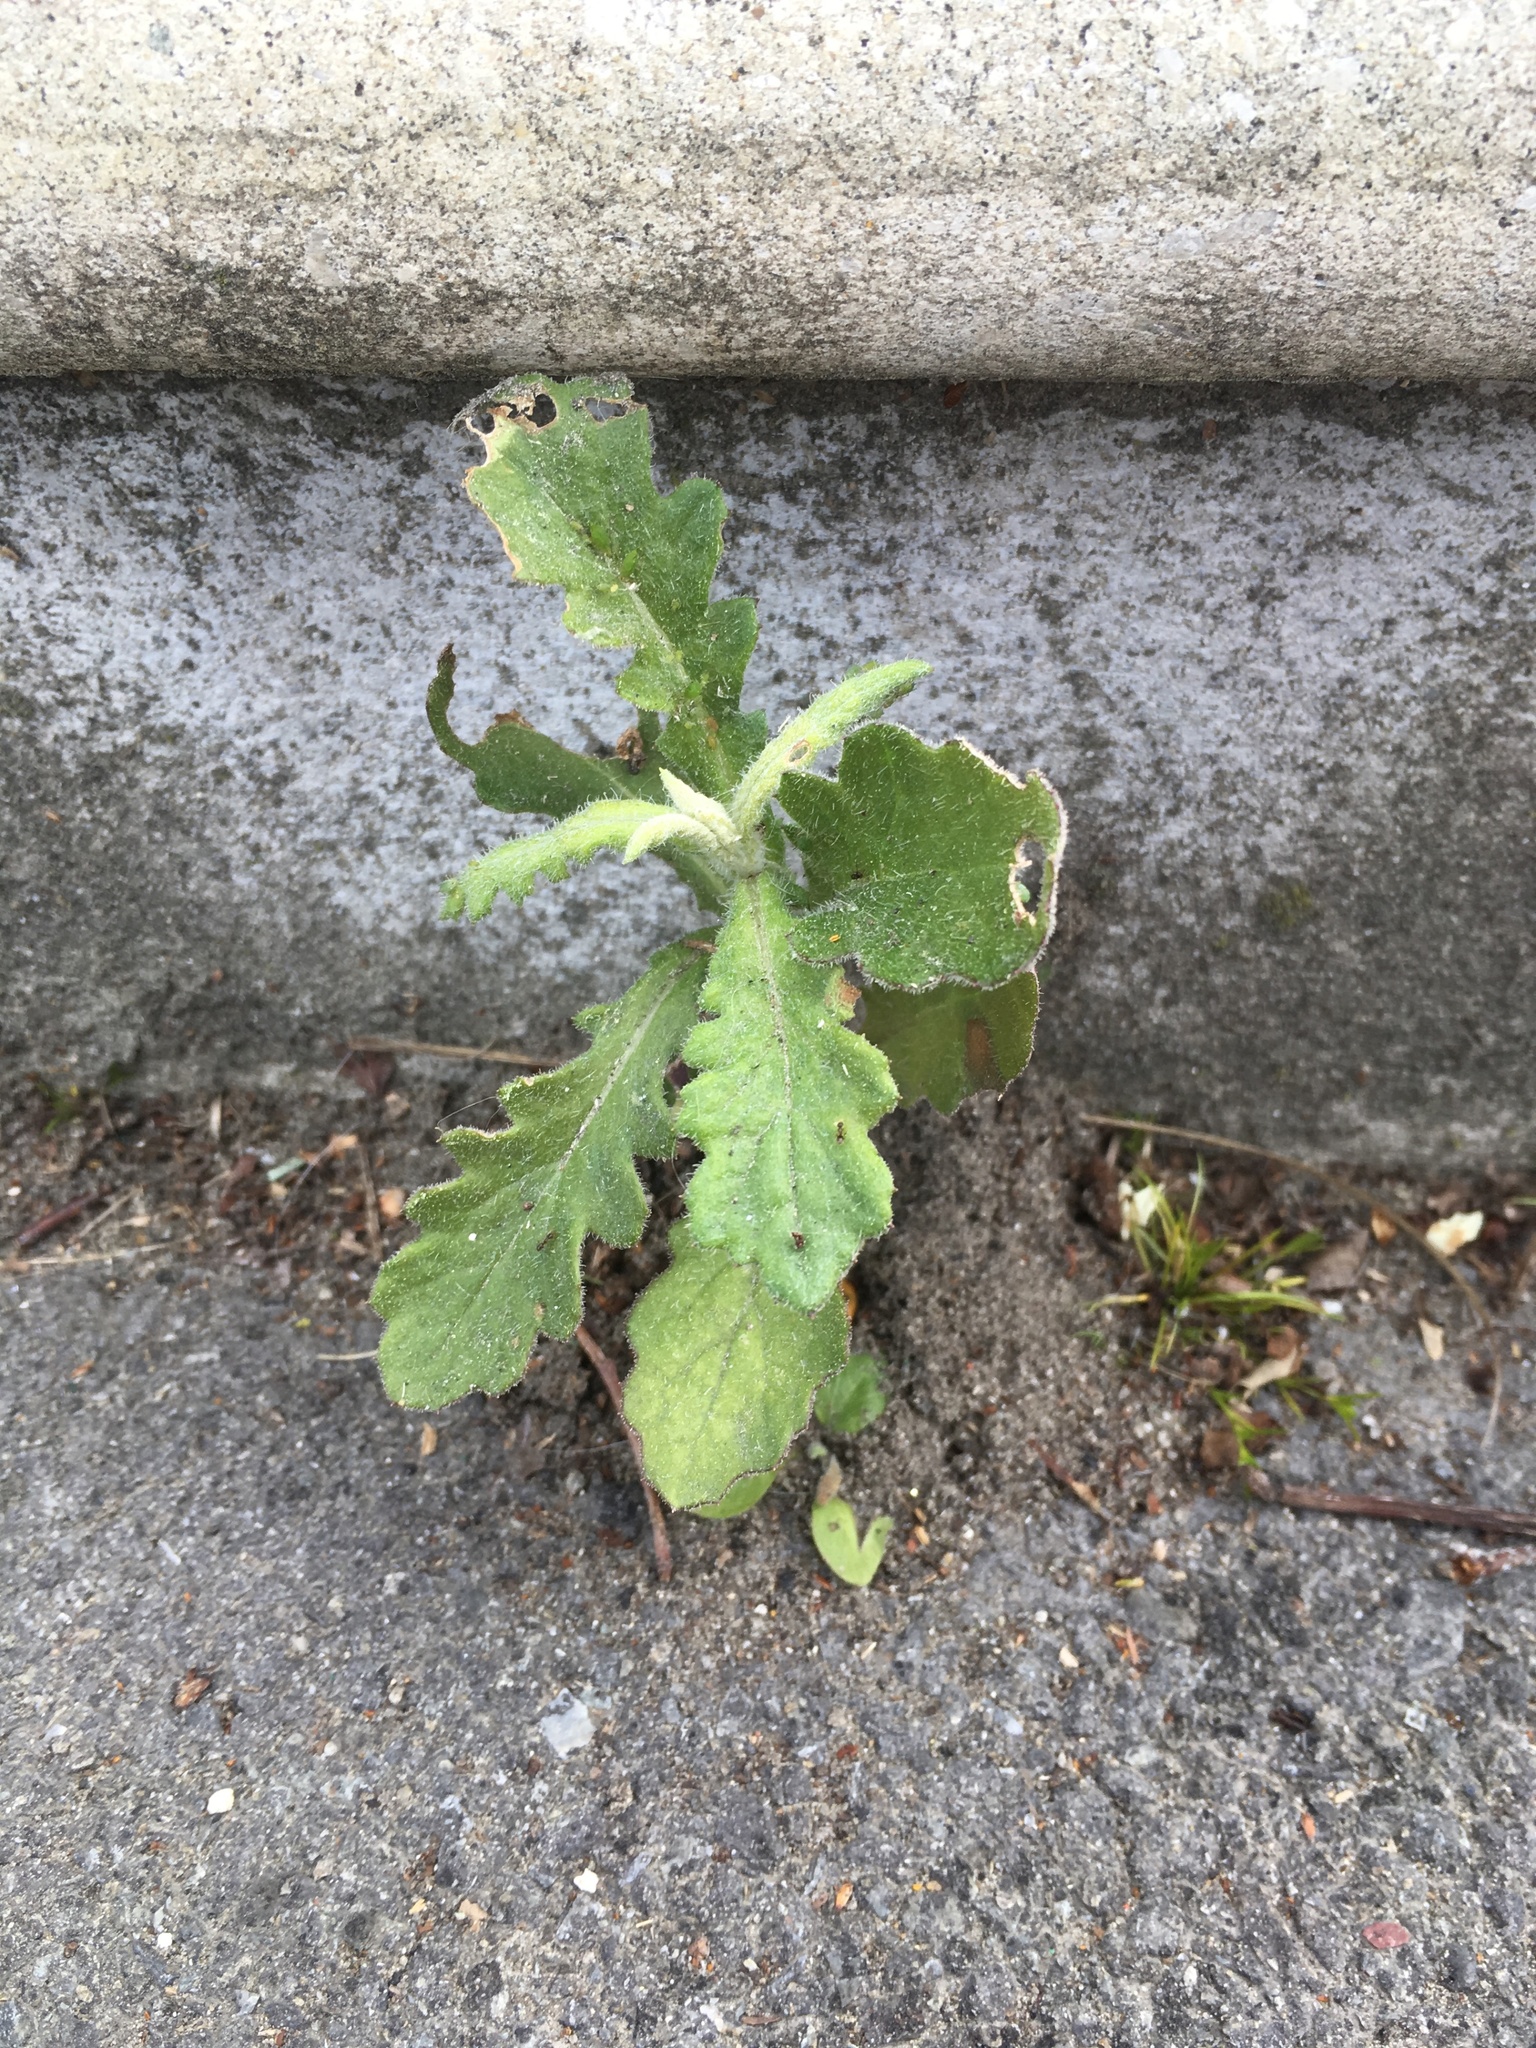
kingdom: Plantae
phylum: Tracheophyta
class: Magnoliopsida
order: Asterales
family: Asteraceae
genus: Senecio
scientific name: Senecio glomeratus
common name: Cutleaf burnweed
